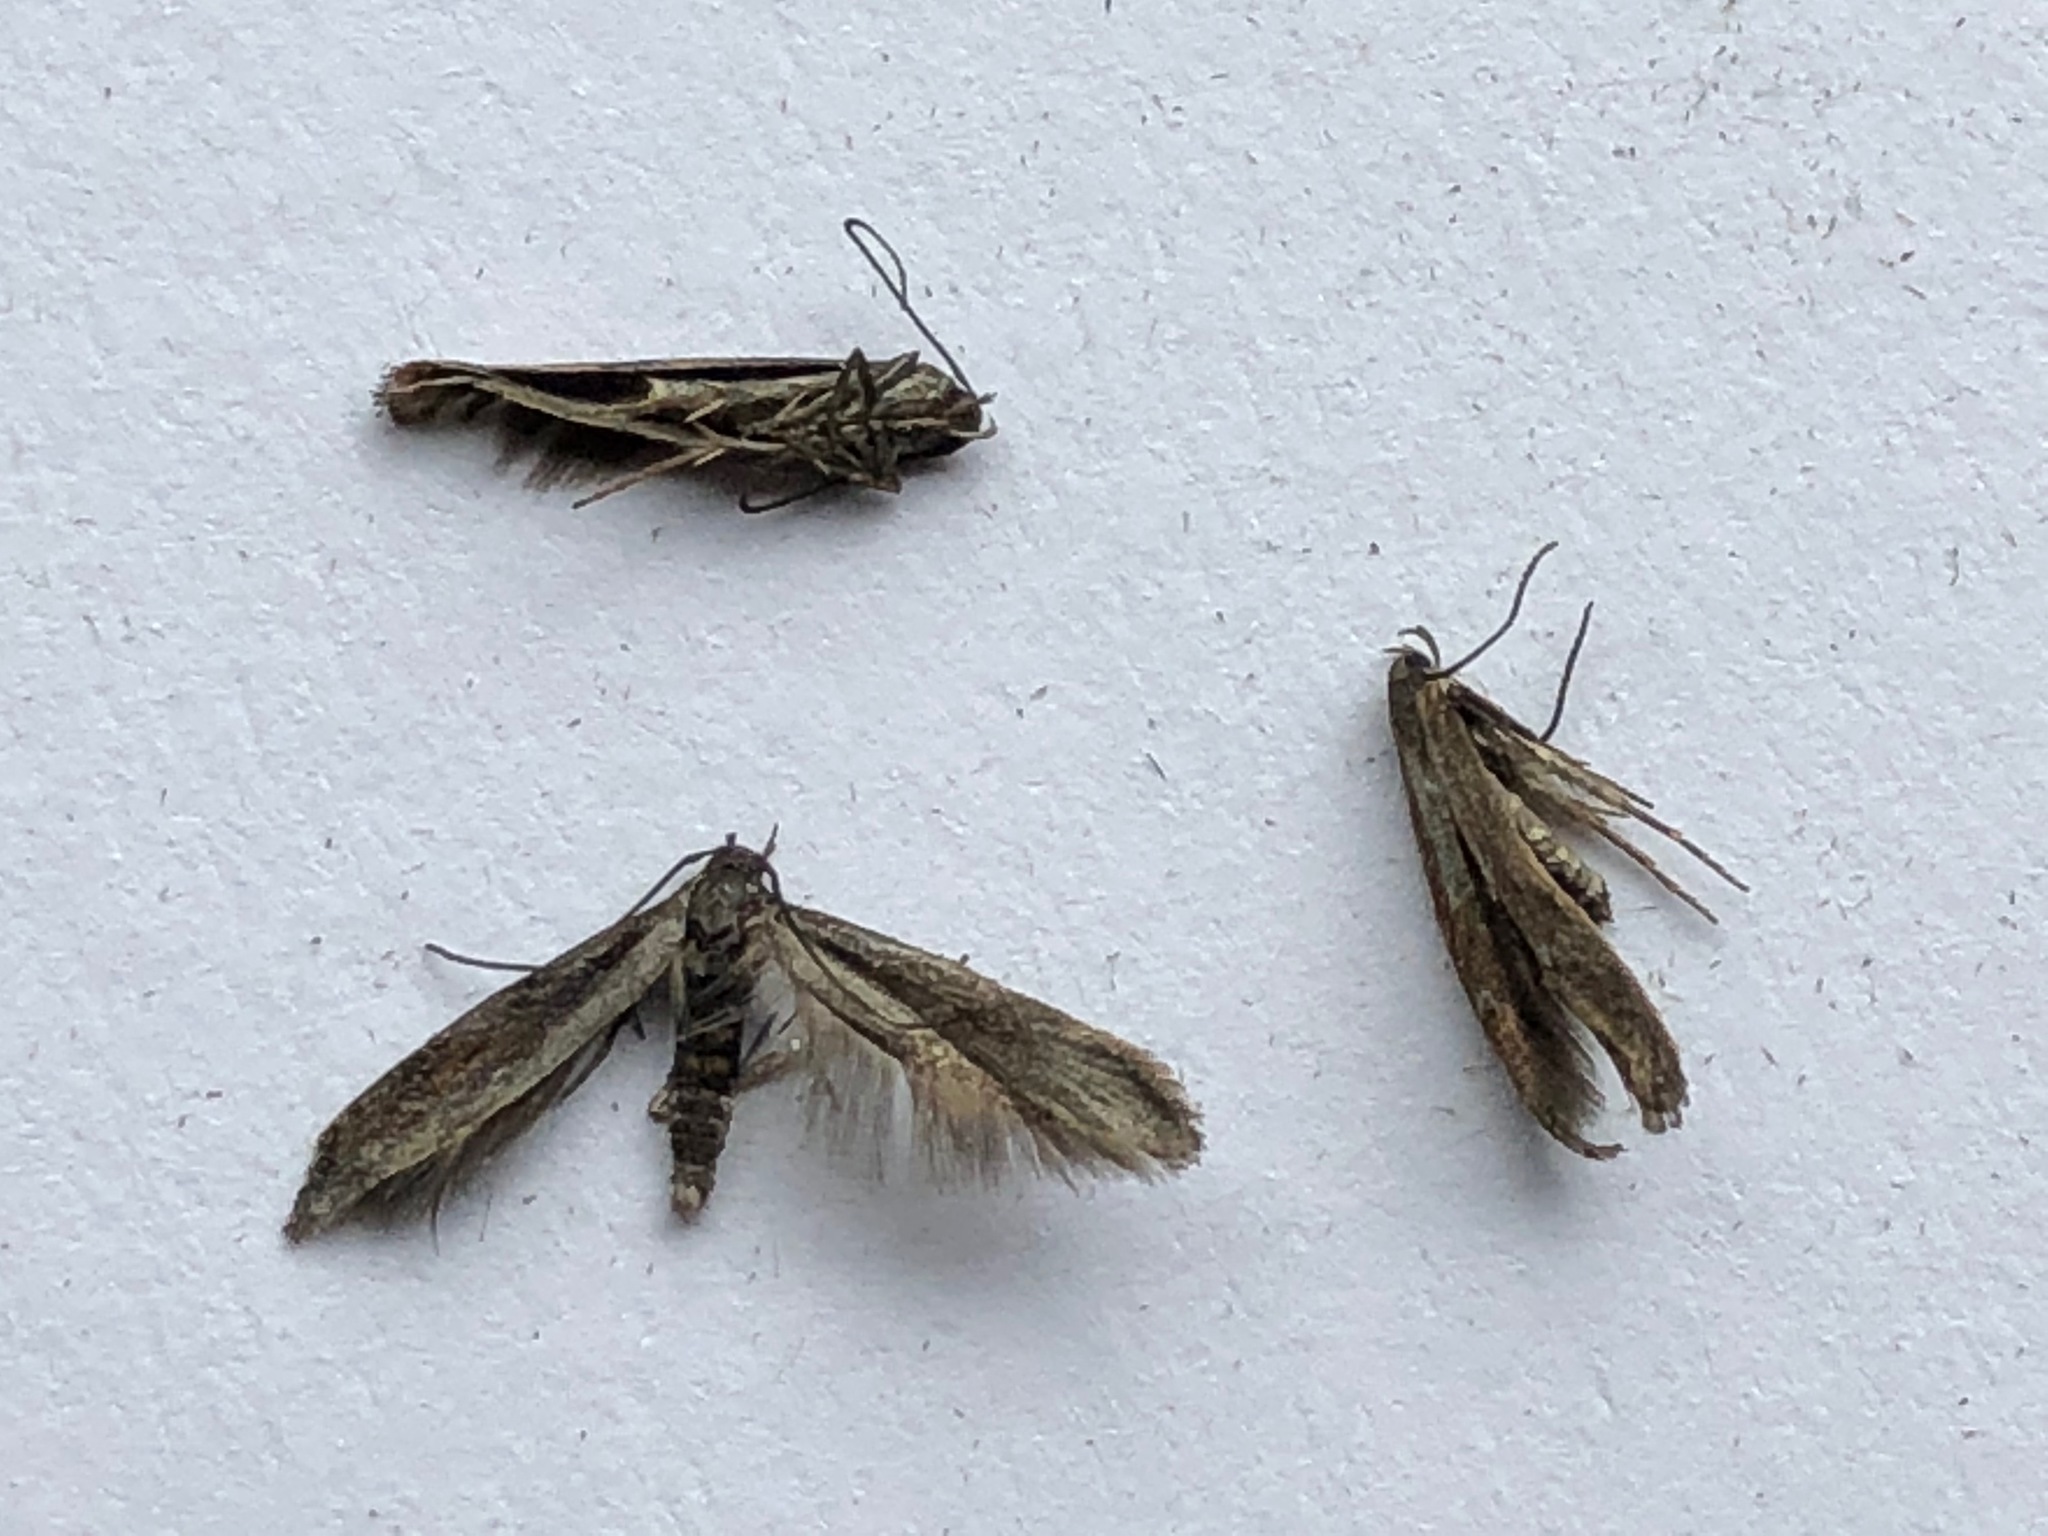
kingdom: Animalia
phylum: Arthropoda
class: Insecta
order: Lepidoptera
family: Momphidae
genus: Mompha
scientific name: Mompha idaei
